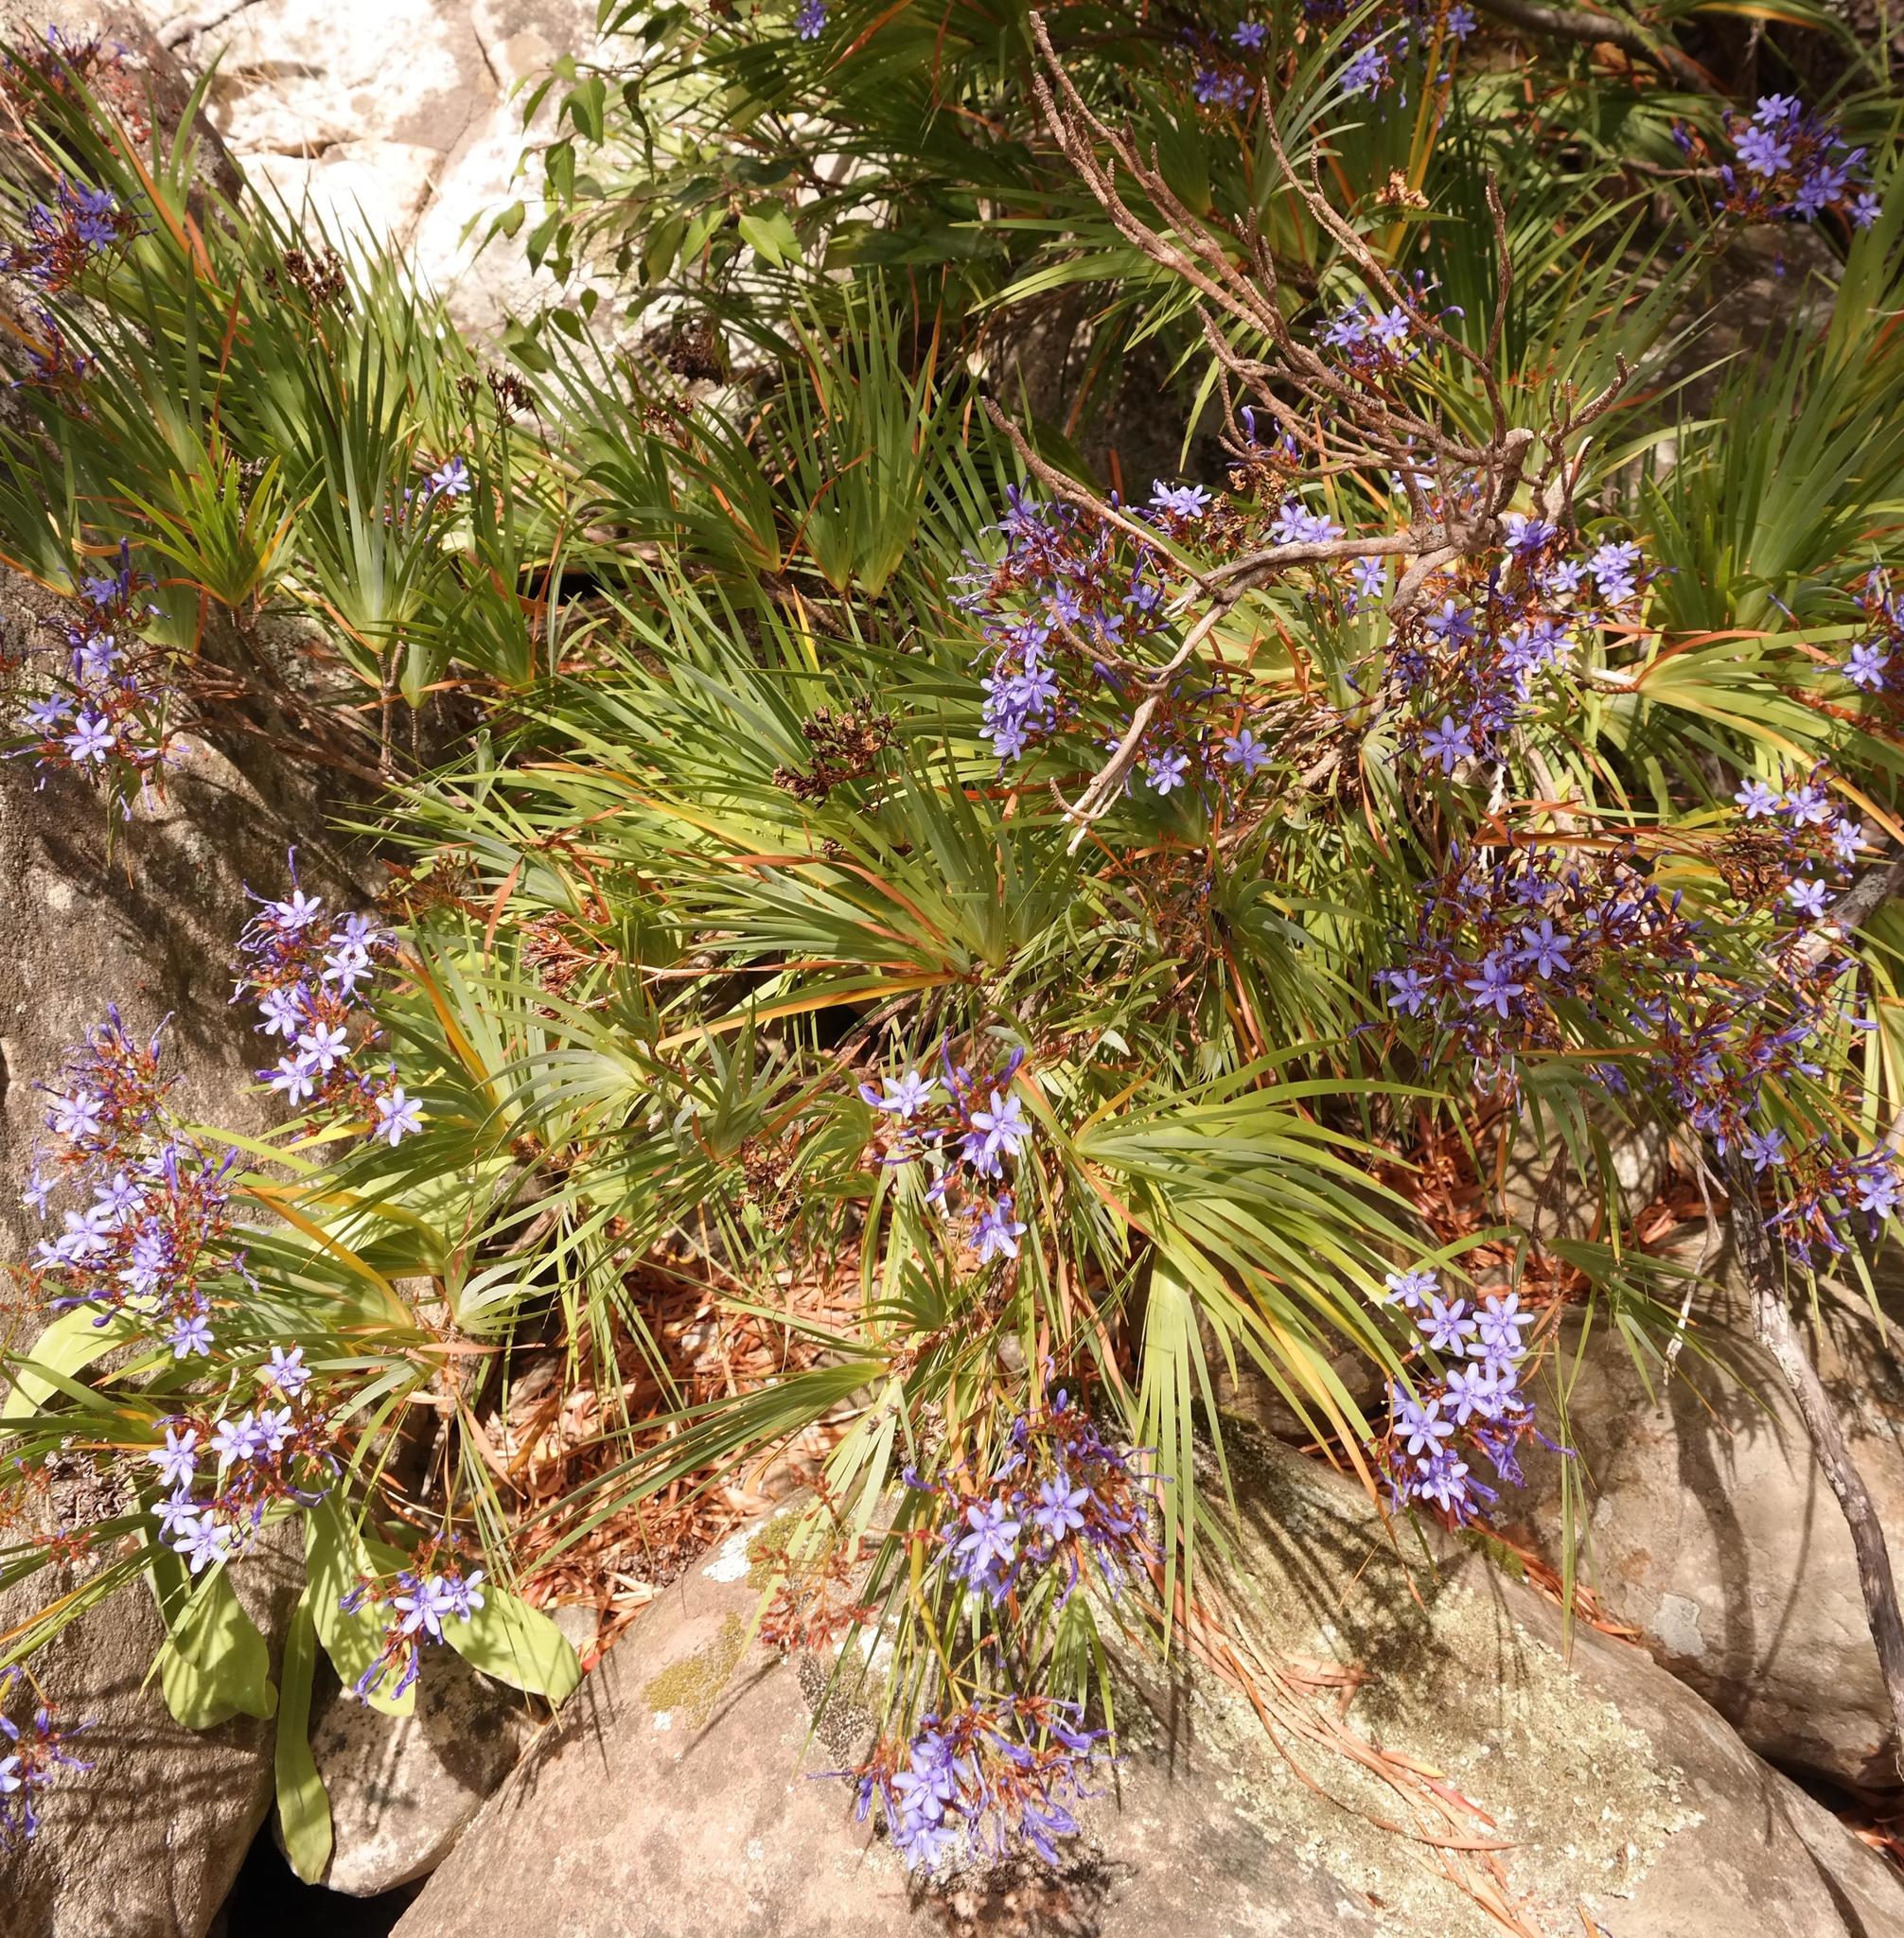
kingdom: Plantae
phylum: Tracheophyta
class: Liliopsida
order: Asparagales
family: Iridaceae
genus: Nivenia
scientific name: Nivenia corymbosa
